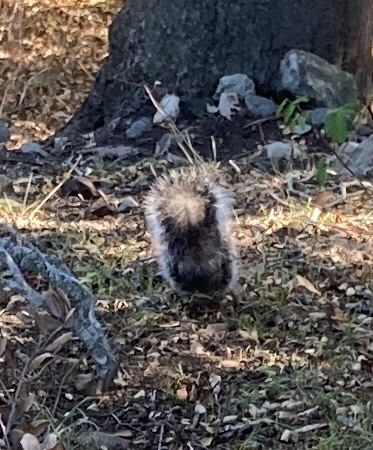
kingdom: Animalia
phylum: Chordata
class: Mammalia
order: Rodentia
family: Sciuridae
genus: Sciurus
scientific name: Sciurus griseus
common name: Western gray squirrel
